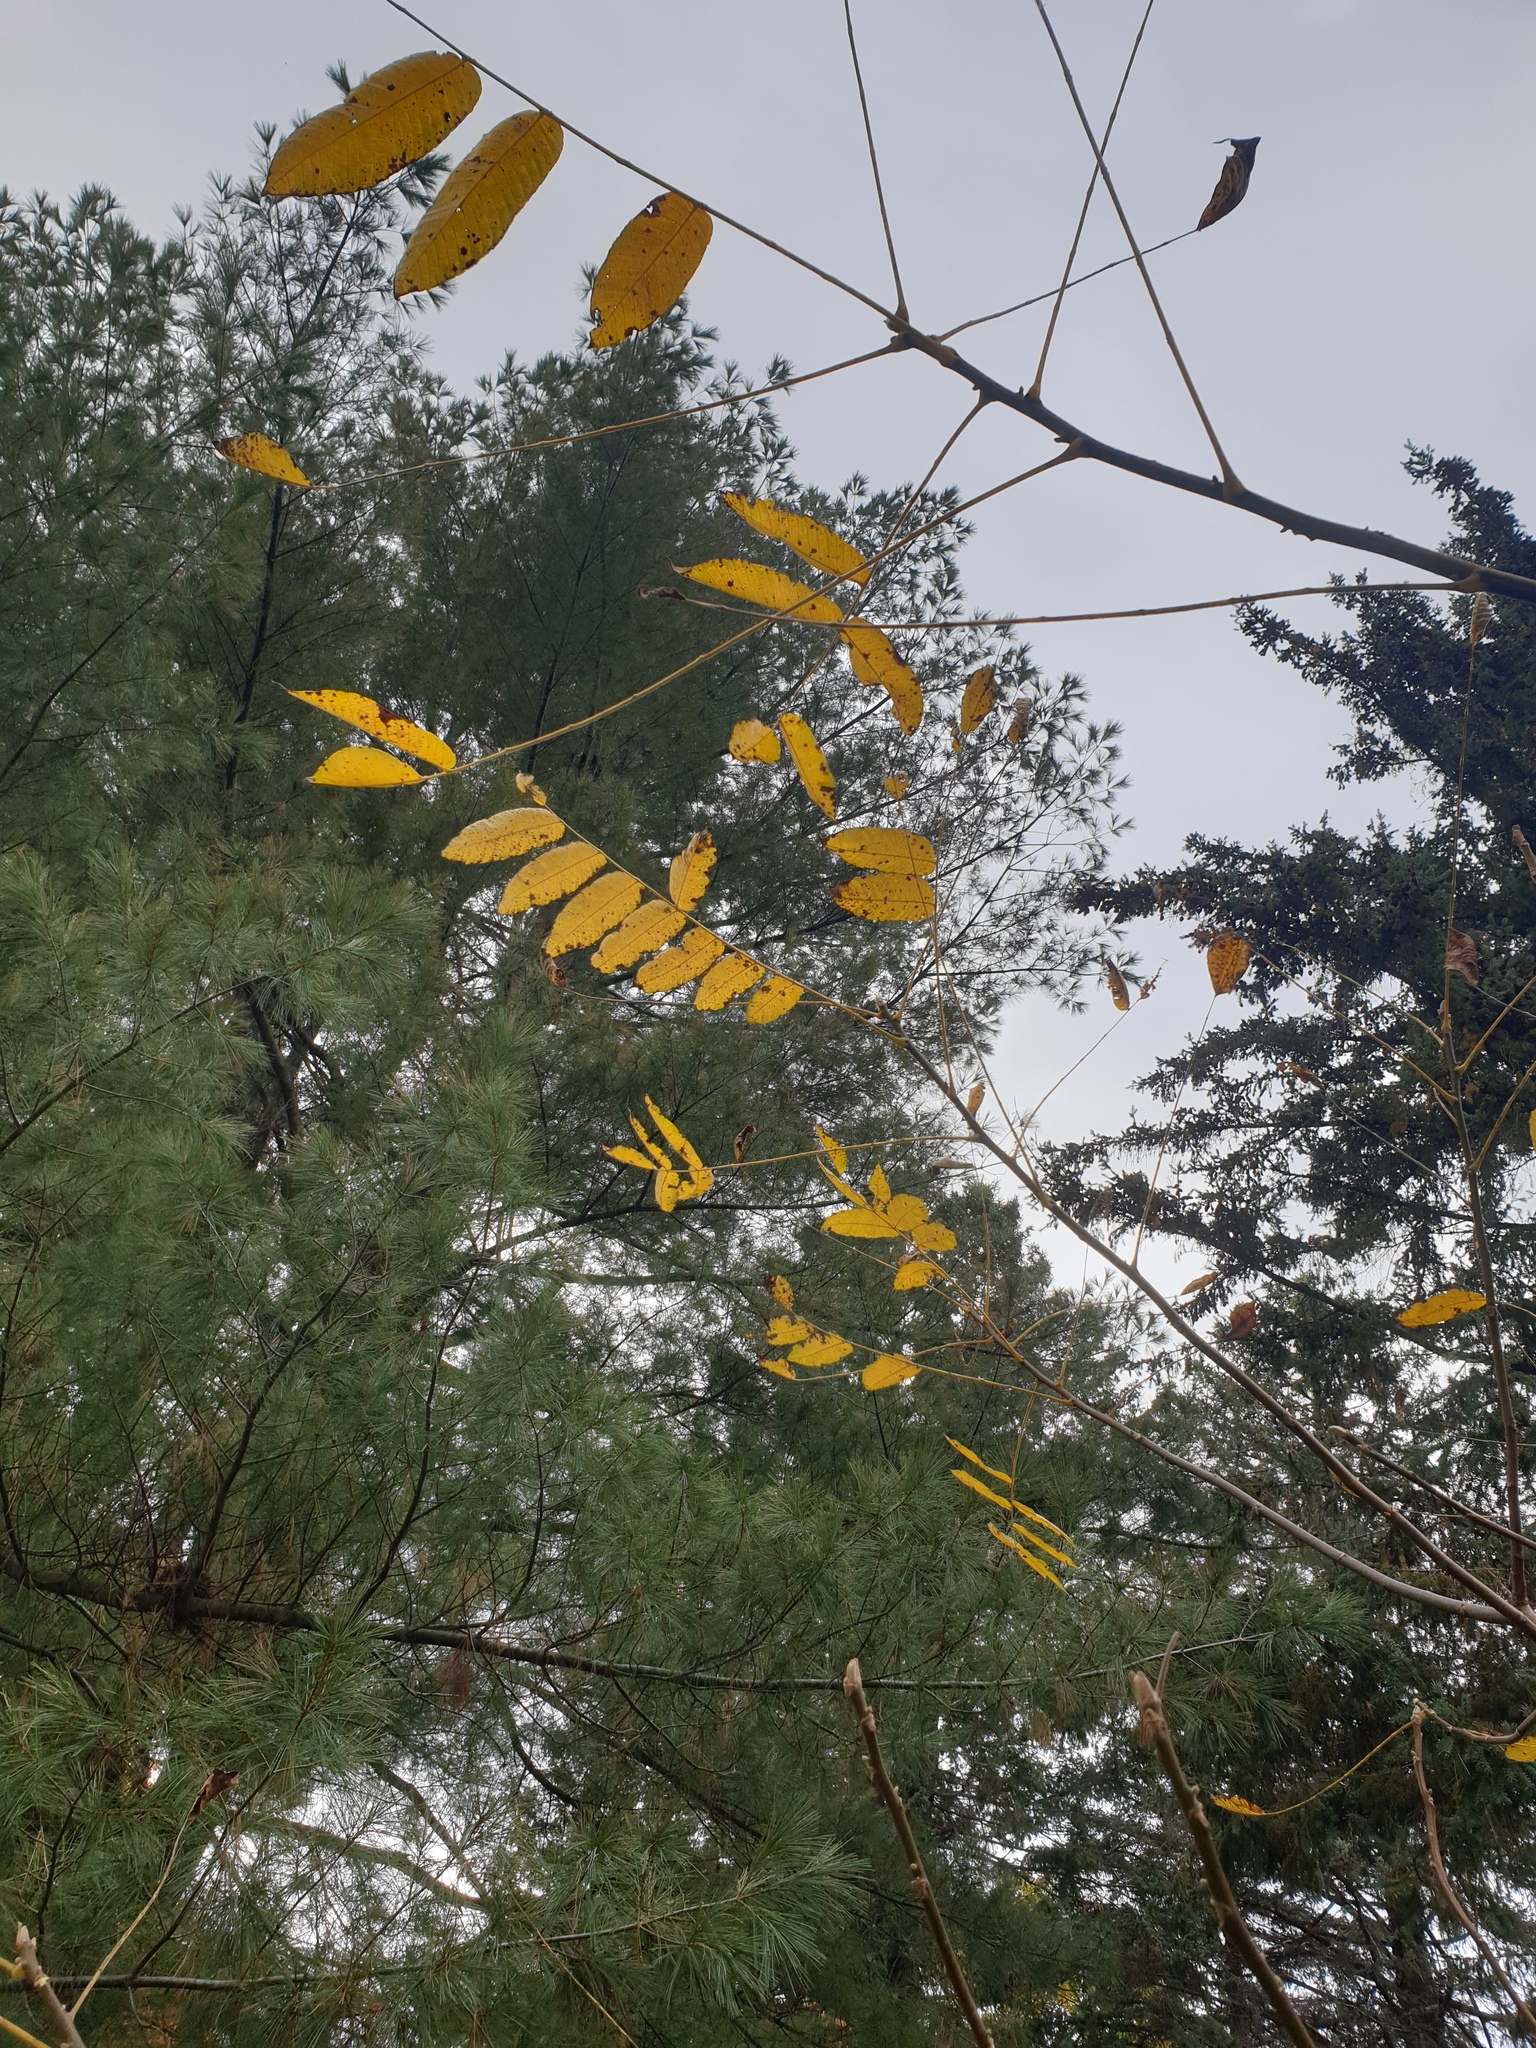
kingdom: Plantae
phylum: Tracheophyta
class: Magnoliopsida
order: Fagales
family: Juglandaceae
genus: Juglans
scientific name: Juglans cinerea
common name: Butternut
